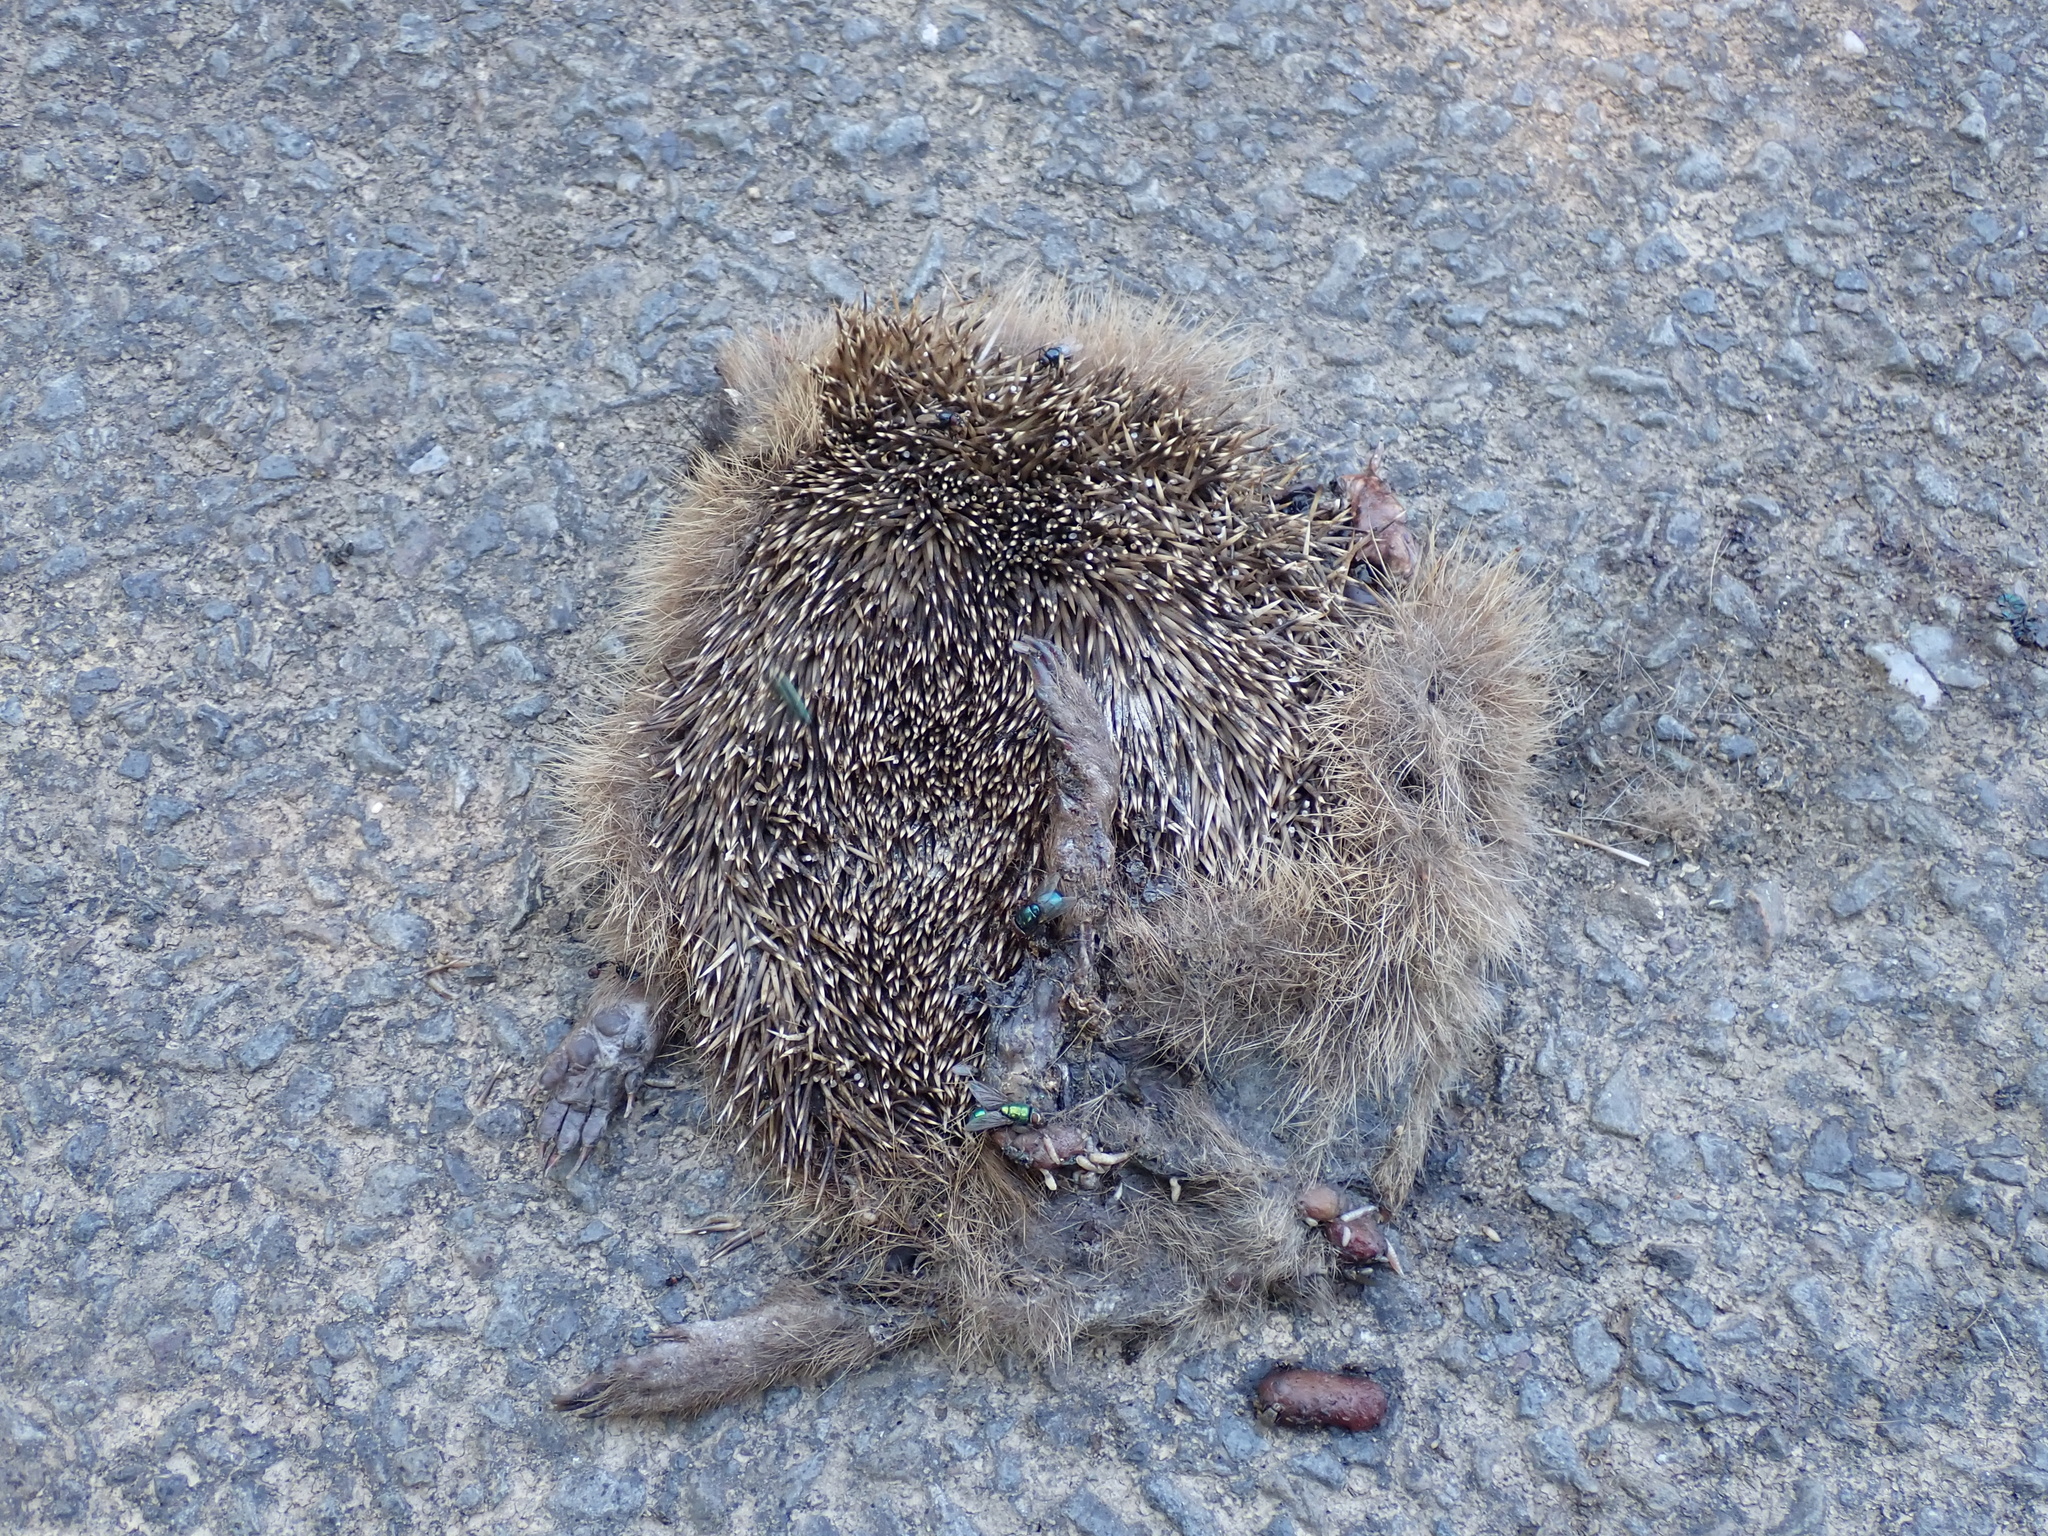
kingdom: Animalia
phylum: Chordata
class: Mammalia
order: Erinaceomorpha
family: Erinaceidae
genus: Erinaceus
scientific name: Erinaceus europaeus
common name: West european hedgehog
